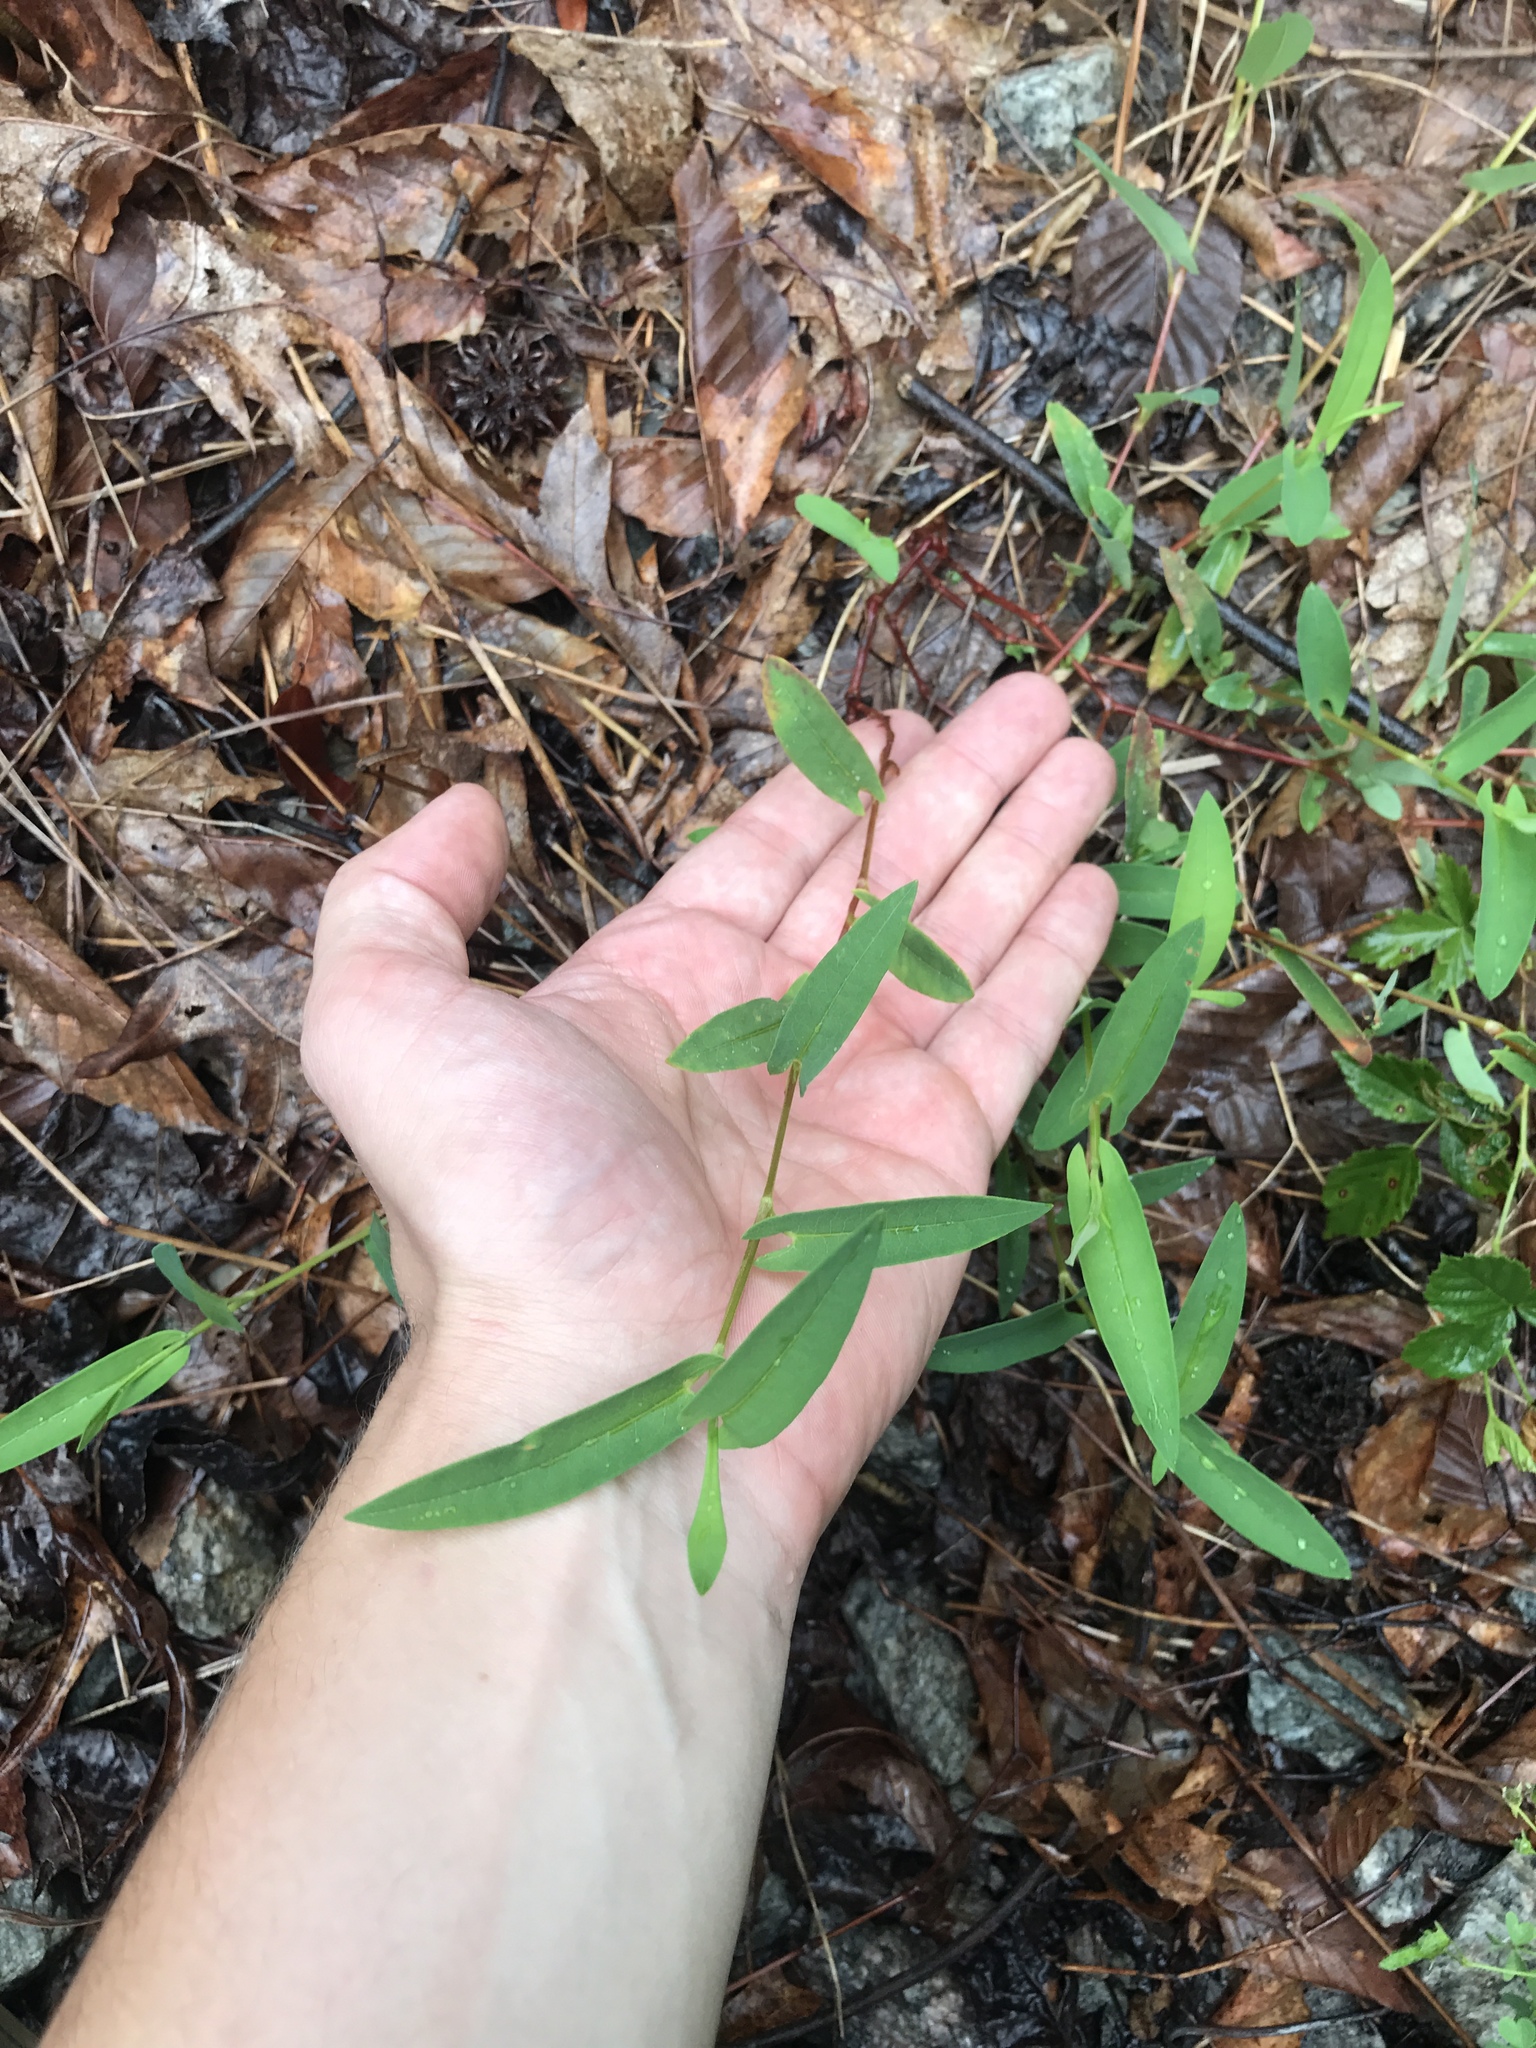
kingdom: Plantae
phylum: Tracheophyta
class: Magnoliopsida
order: Caryophyllales
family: Polygonaceae
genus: Persicaria
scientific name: Persicaria sagittata
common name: American tearthumb
